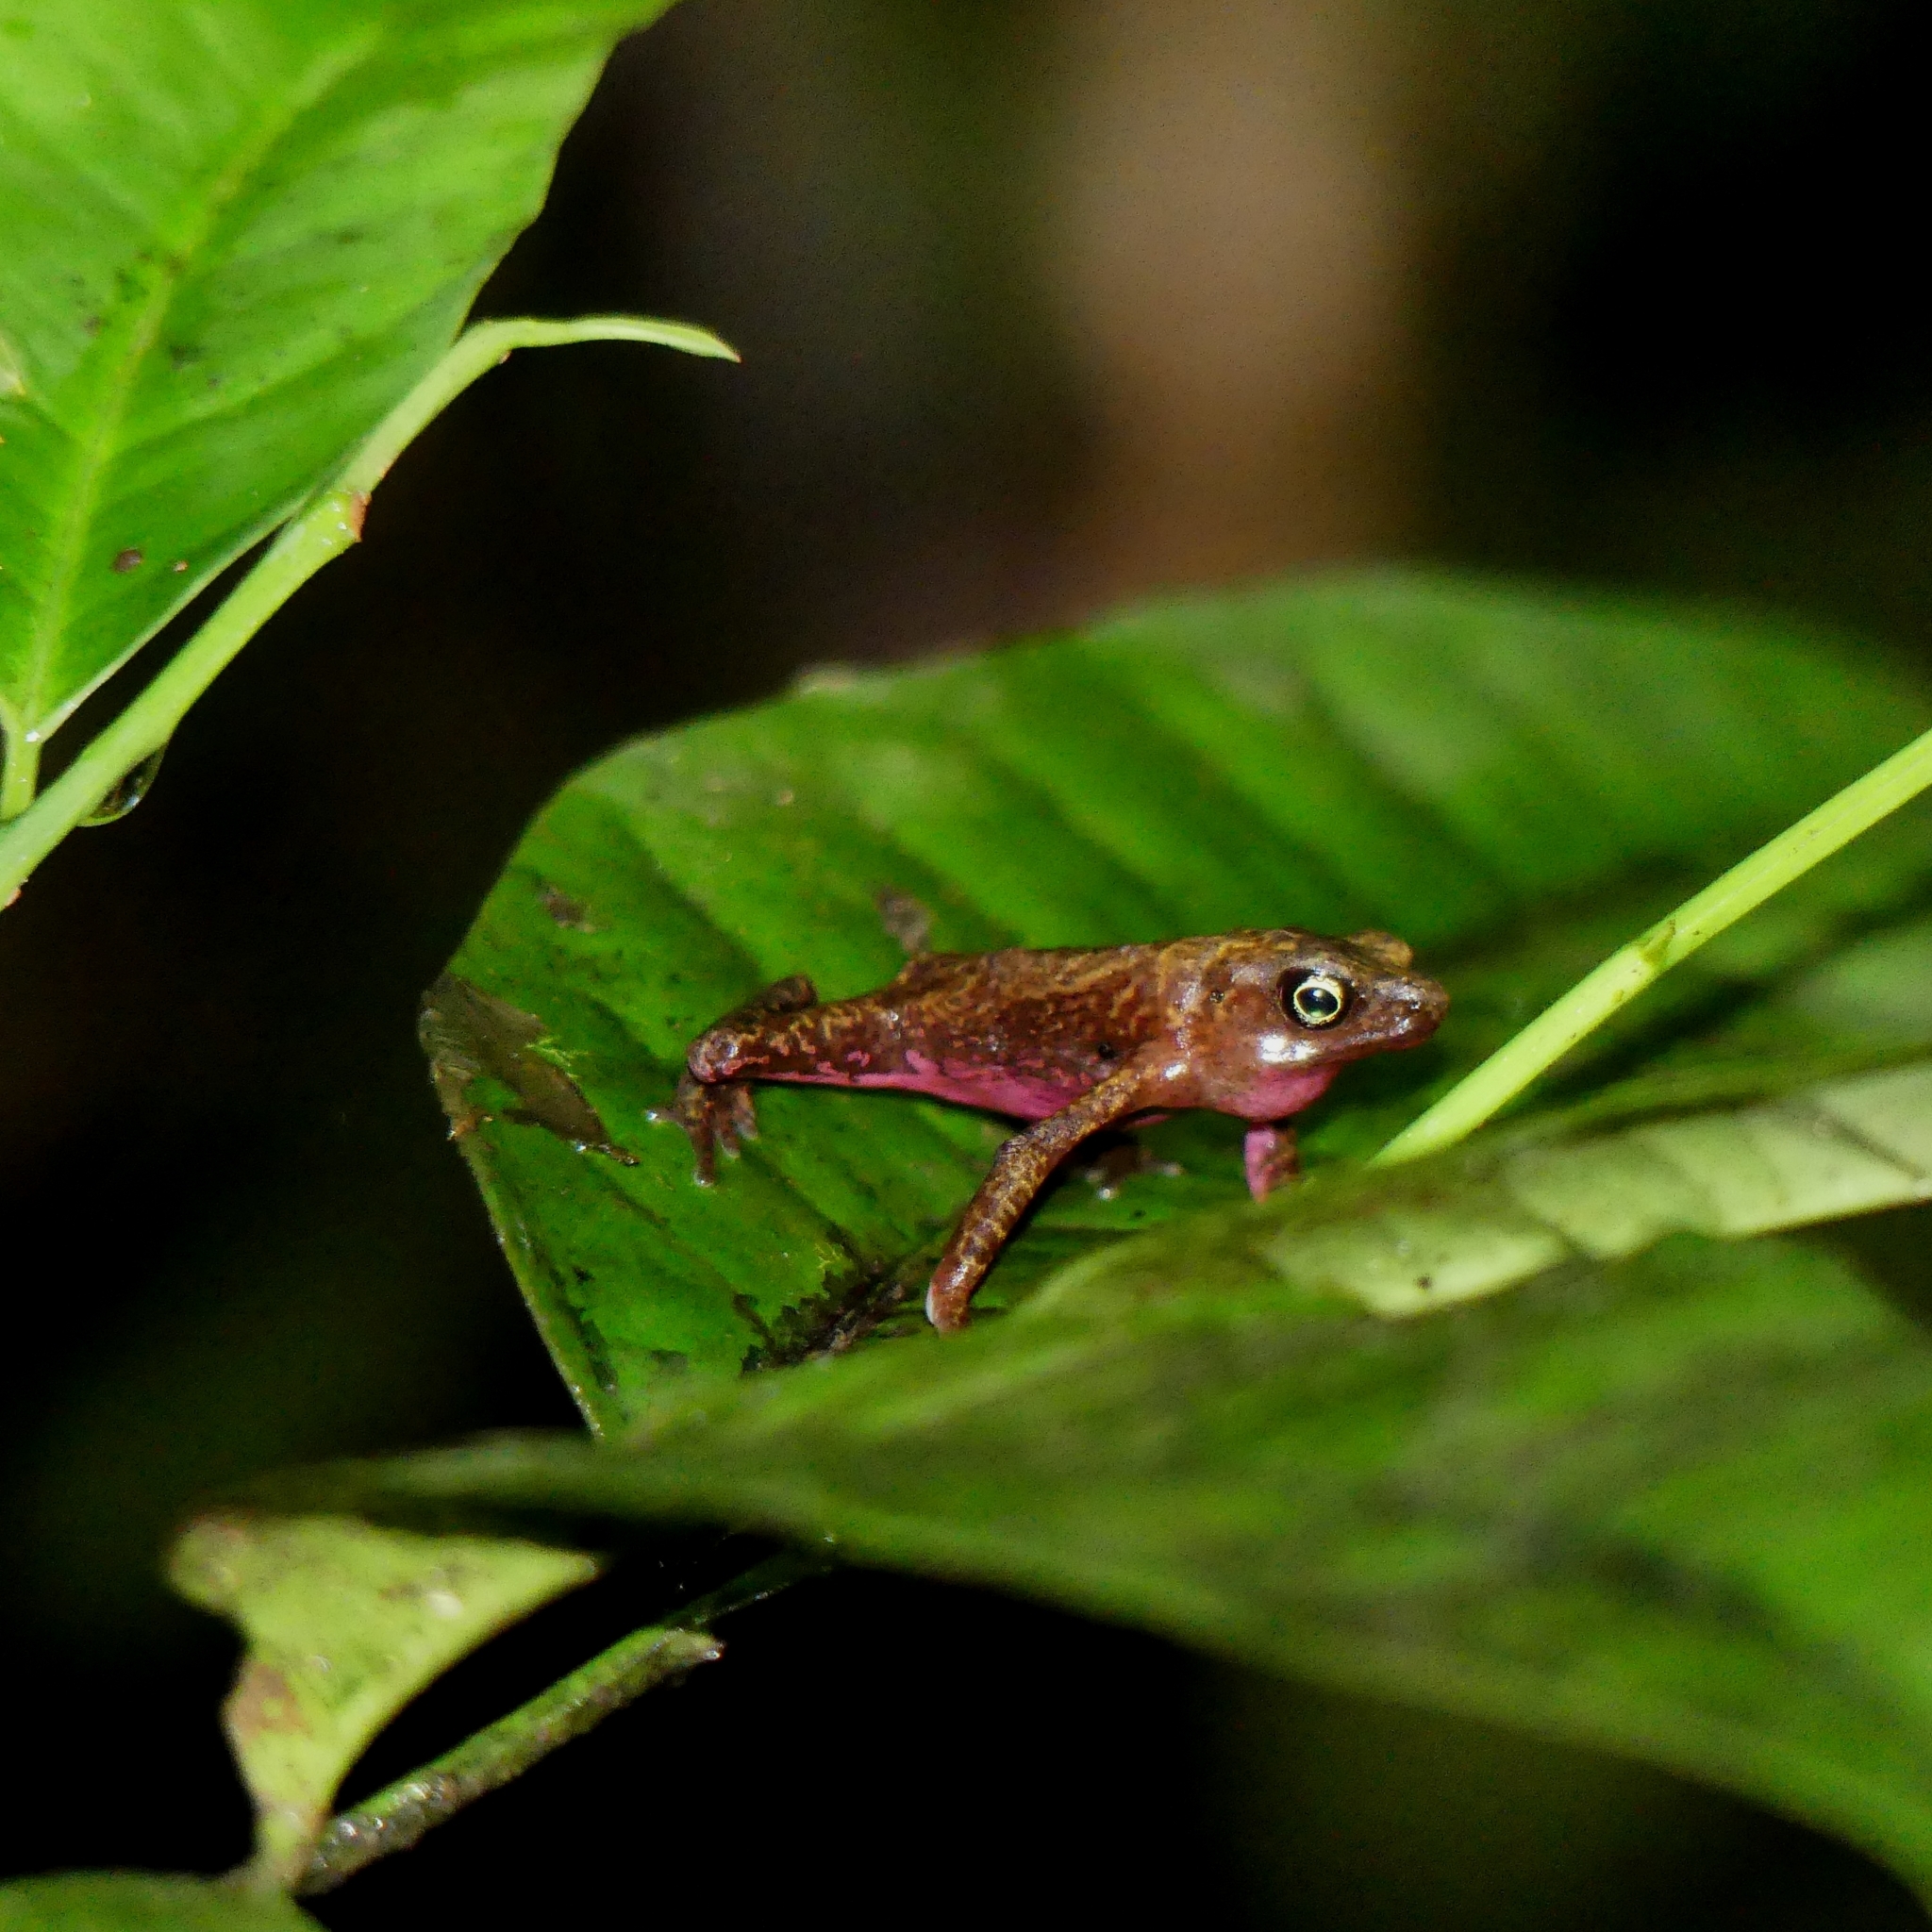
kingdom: Animalia
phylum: Chordata
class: Amphibia
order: Anura
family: Bufonidae
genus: Atelopus
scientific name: Atelopus flavescens
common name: Cayenne stubfoot toad
